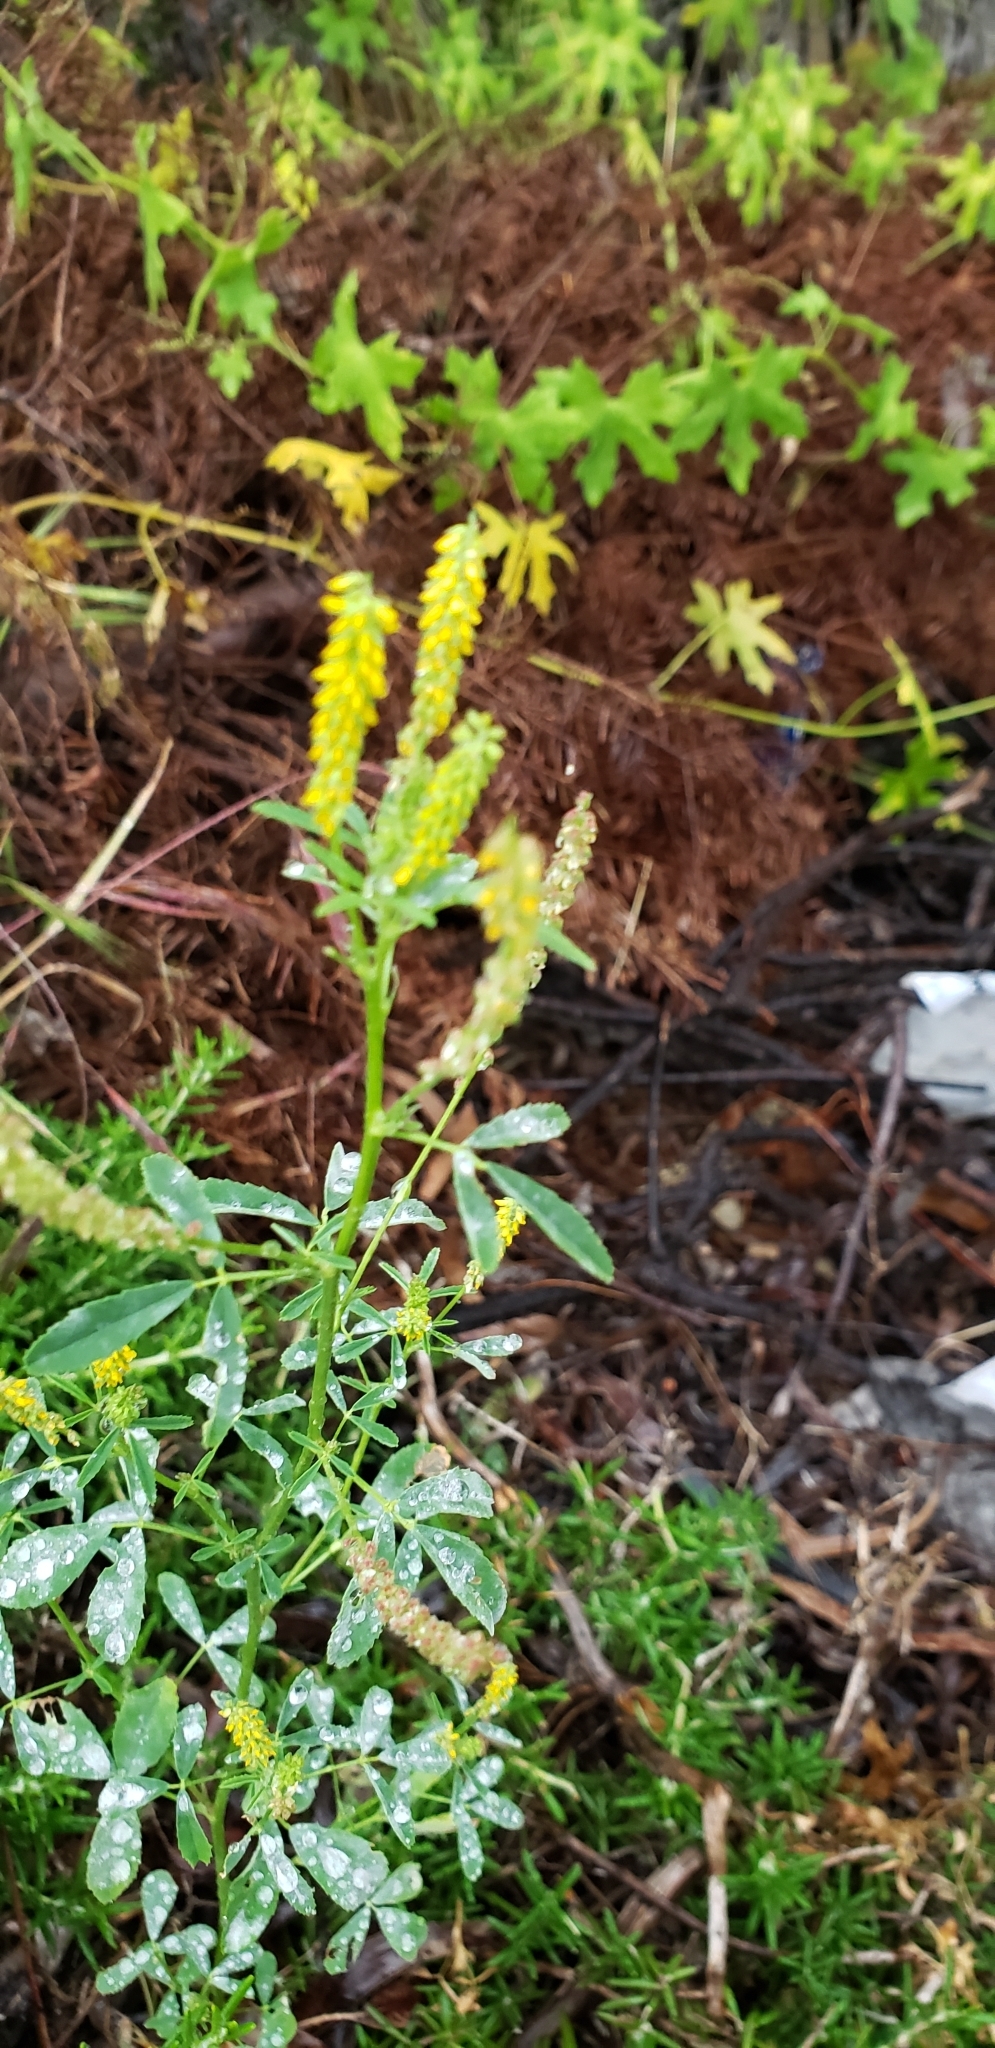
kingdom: Plantae
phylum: Tracheophyta
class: Magnoliopsida
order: Fabales
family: Fabaceae
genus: Melilotus
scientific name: Melilotus indicus
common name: Small melilot
